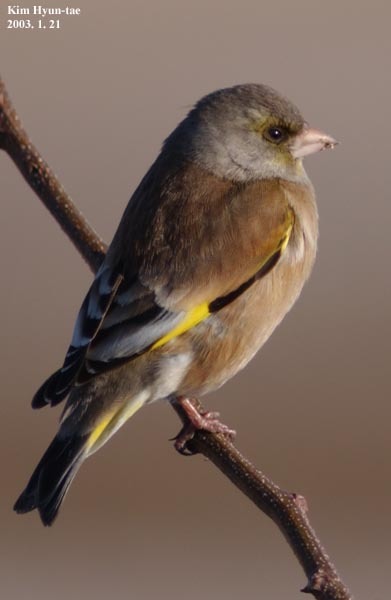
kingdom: Plantae
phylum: Tracheophyta
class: Liliopsida
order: Poales
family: Poaceae
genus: Chloris
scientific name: Chloris sinica
